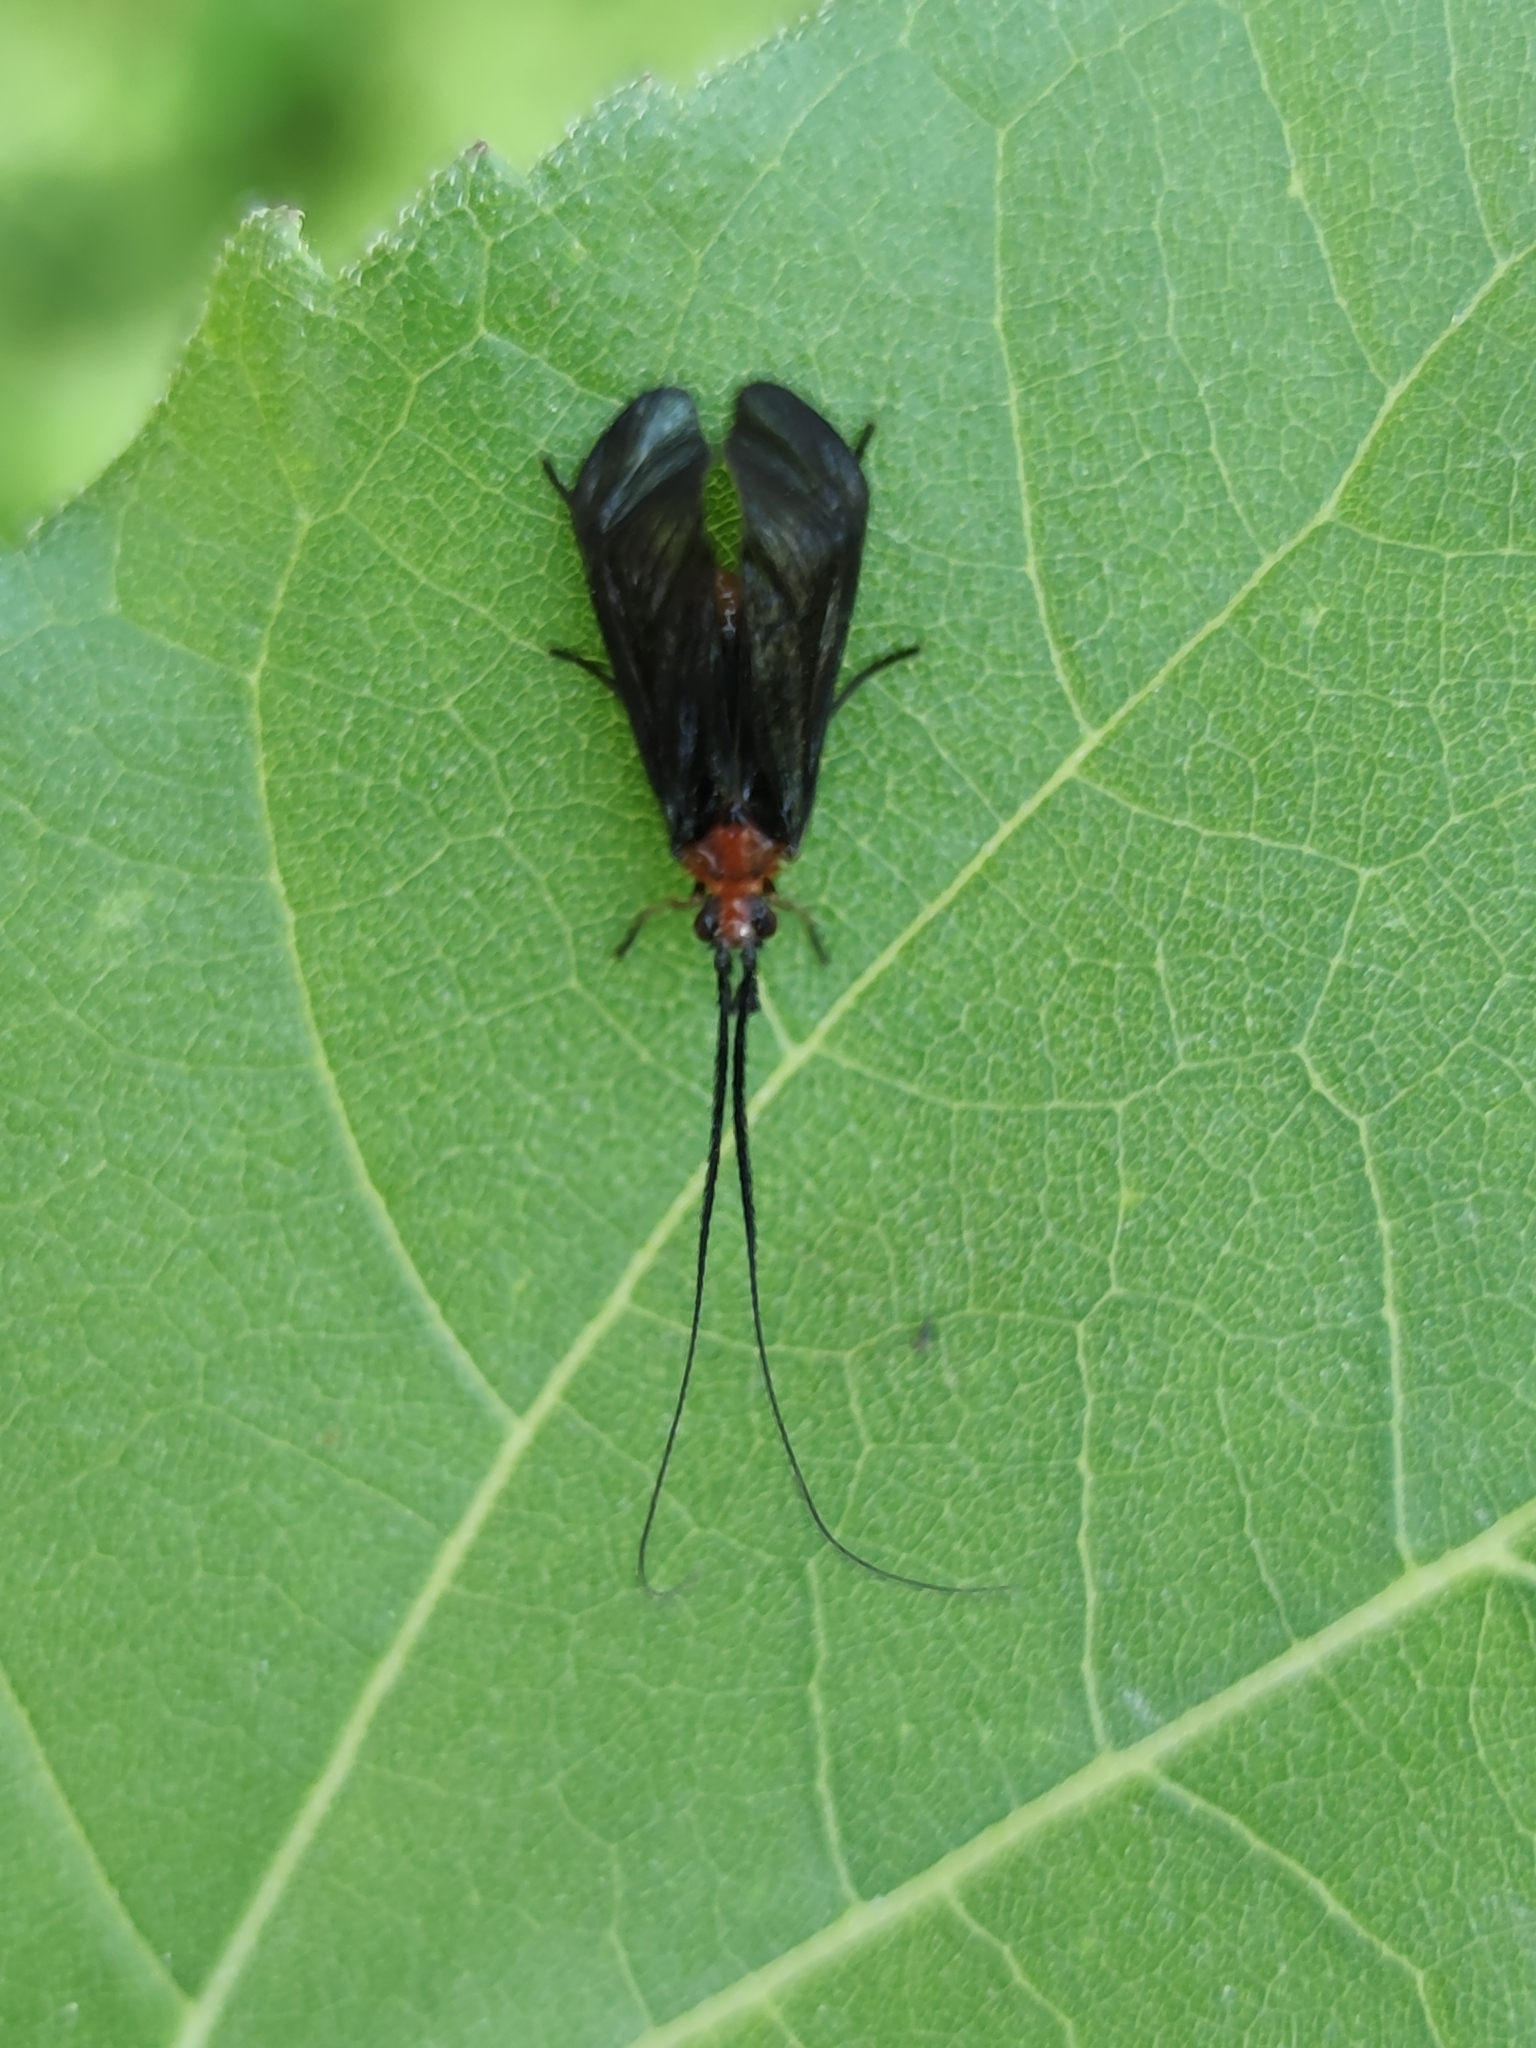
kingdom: Animalia
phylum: Arthropoda
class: Insecta
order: Trichoptera
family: Calamoceratidae
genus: Phylloicus
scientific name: Phylloicus aeneus
